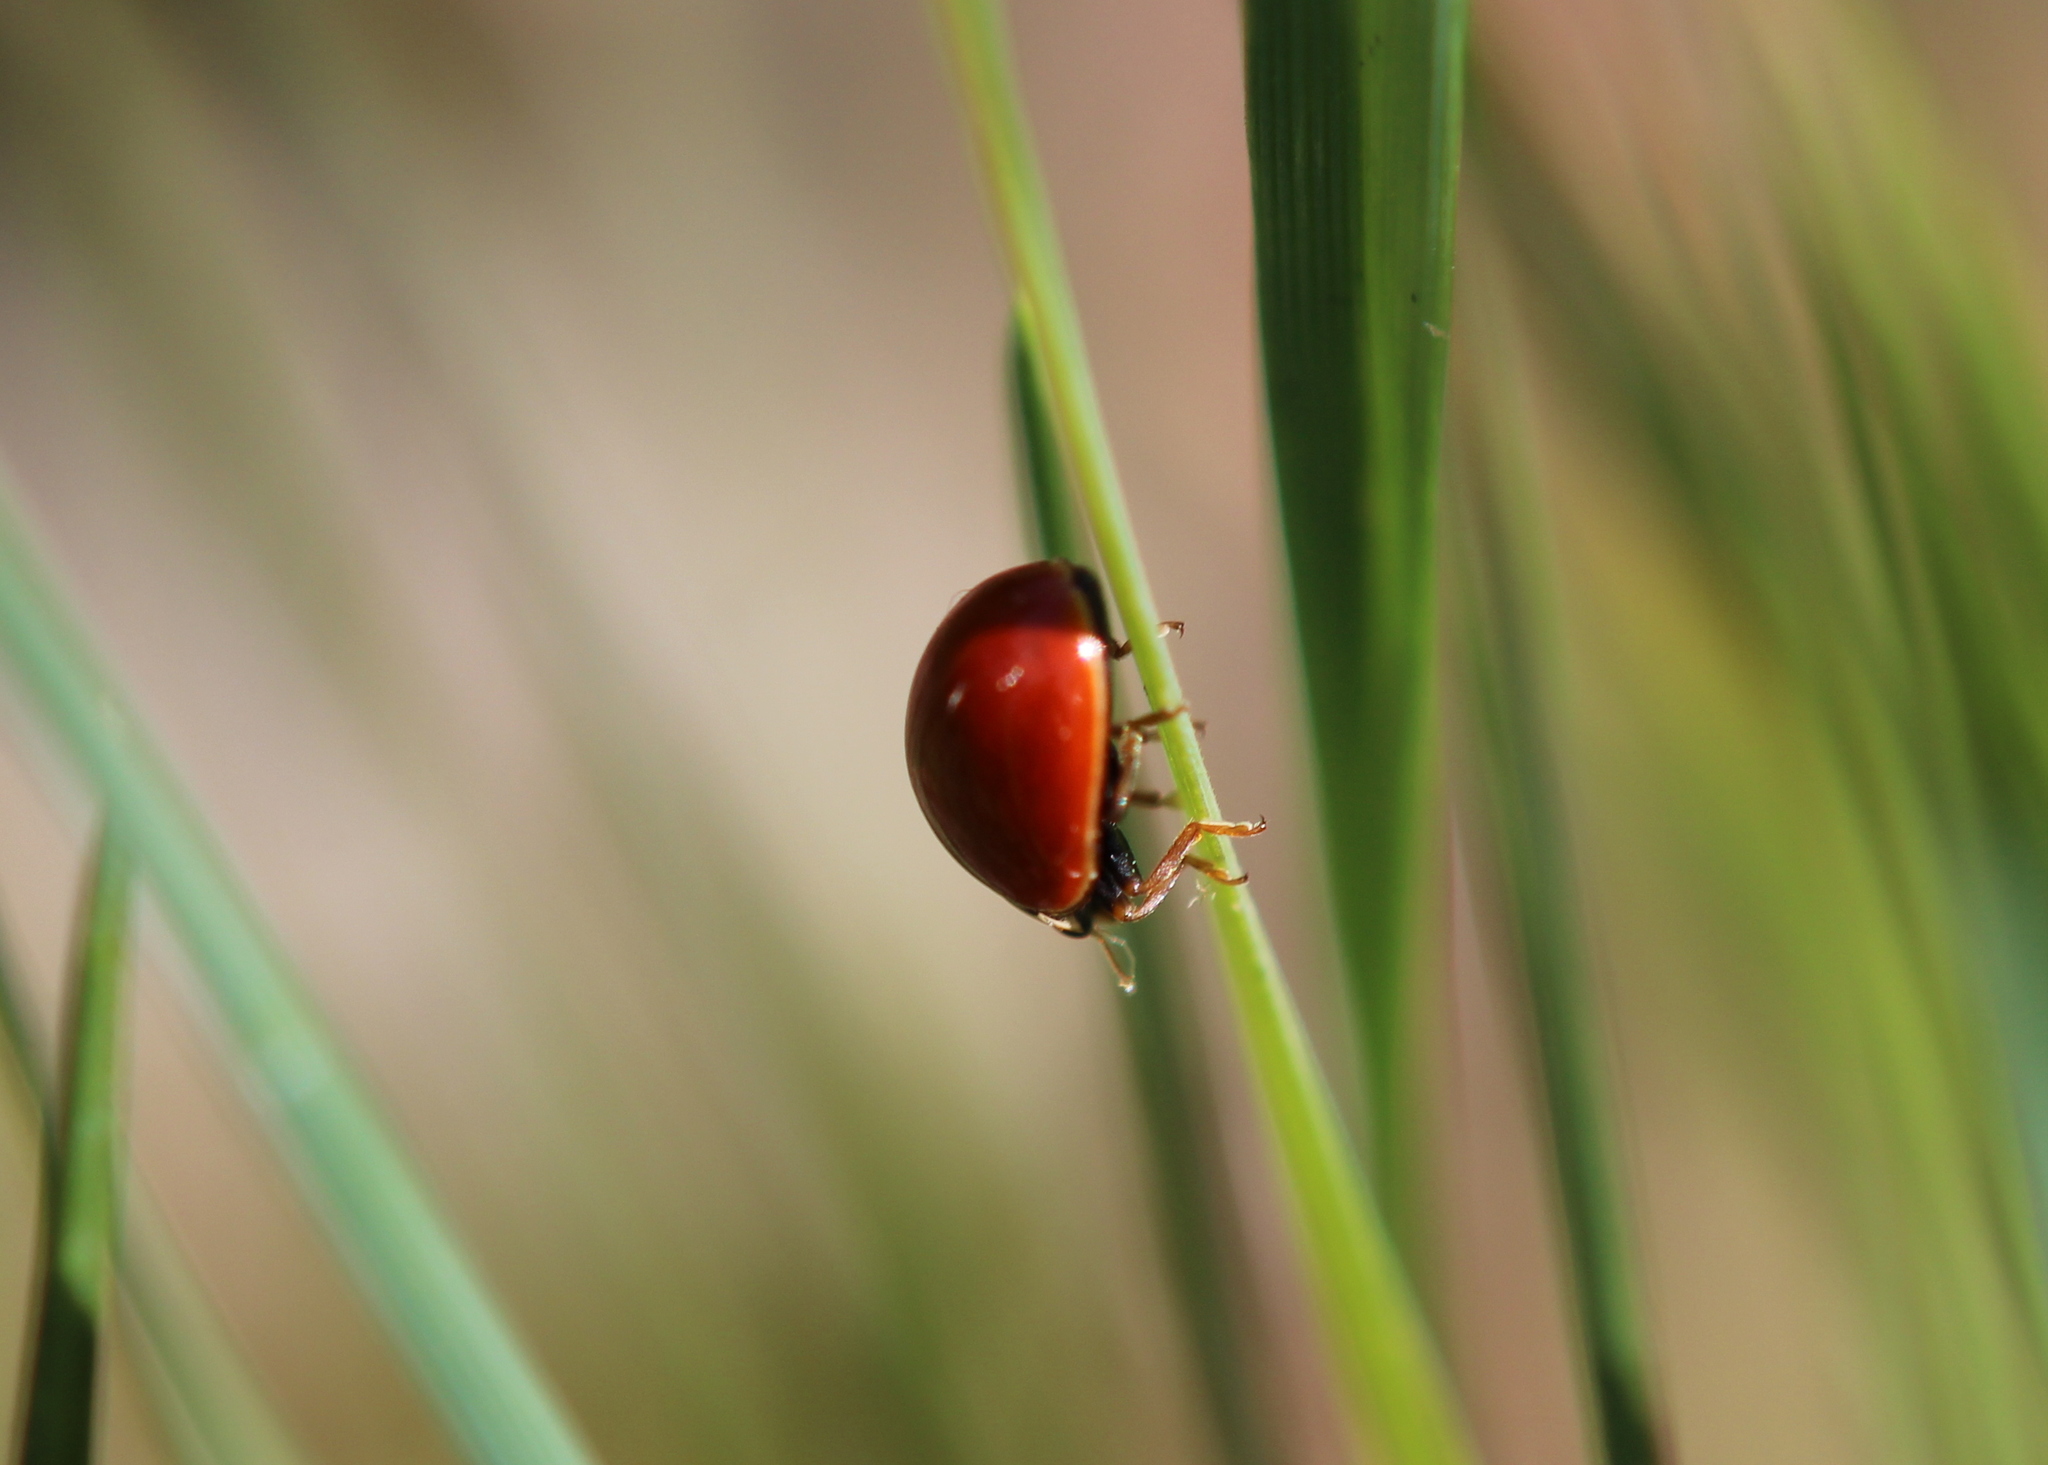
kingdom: Animalia
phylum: Arthropoda
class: Insecta
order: Coleoptera
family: Coccinellidae
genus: Cycloneda
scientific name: Cycloneda munda
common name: Polished lady beetle
